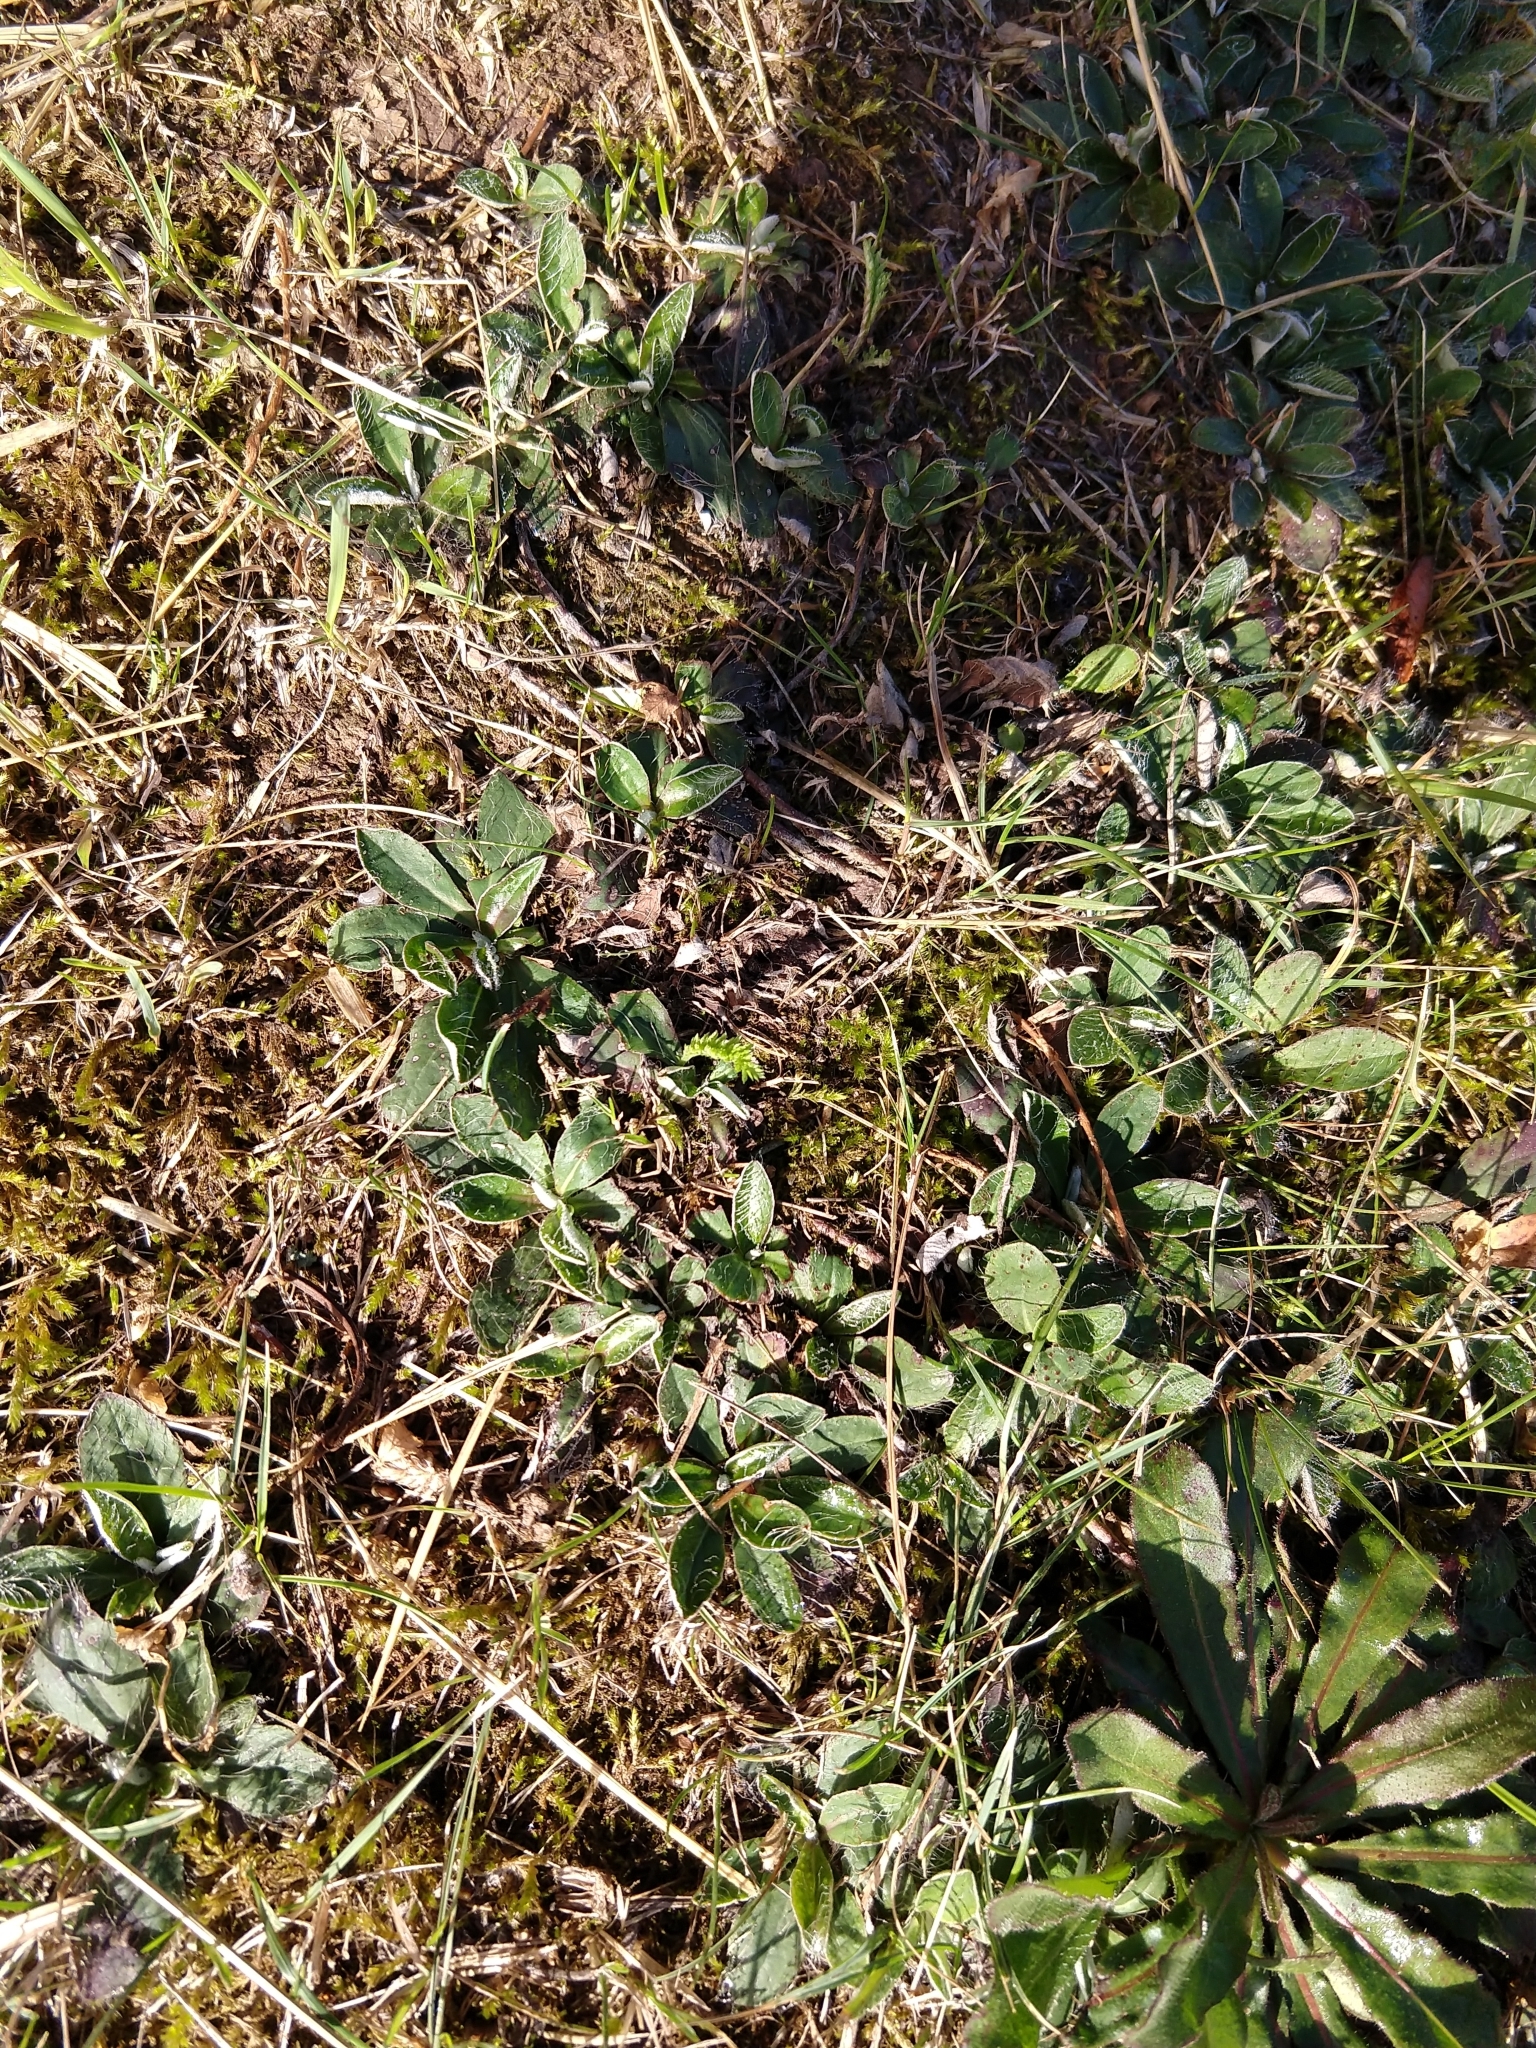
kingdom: Plantae
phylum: Tracheophyta
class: Magnoliopsida
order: Asterales
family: Asteraceae
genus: Pilosella
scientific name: Pilosella officinarum
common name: Mouse-ear hawkweed
